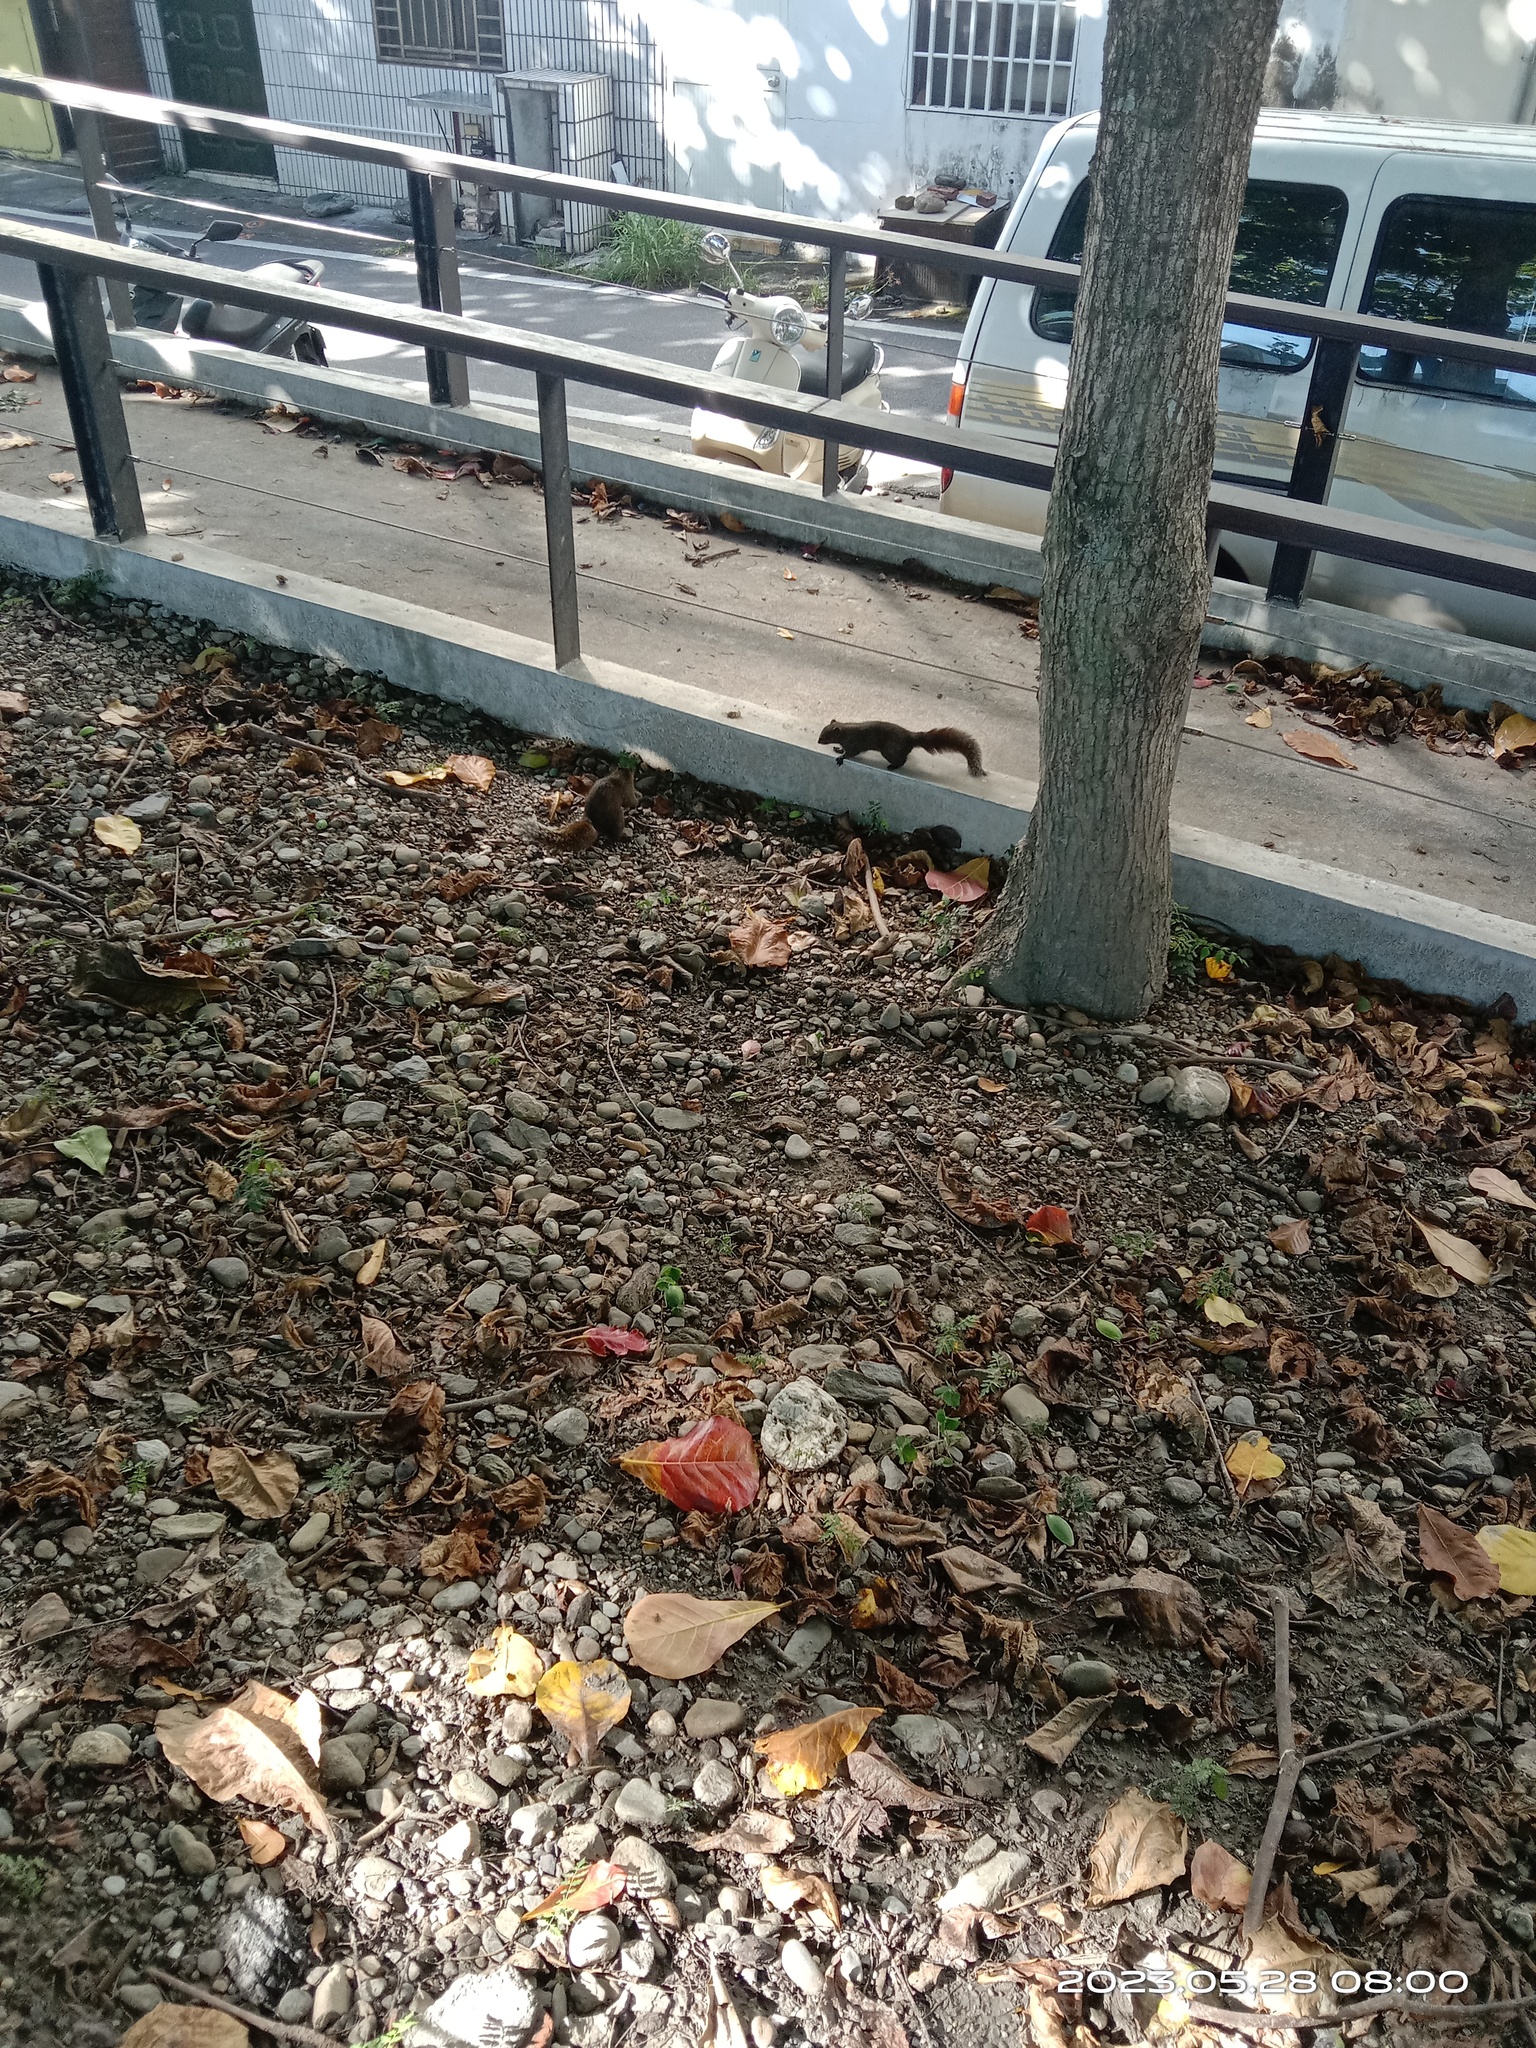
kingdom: Animalia
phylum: Chordata
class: Mammalia
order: Rodentia
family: Sciuridae
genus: Callosciurus
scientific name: Callosciurus erythraeus
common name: Pallas's squirrel
